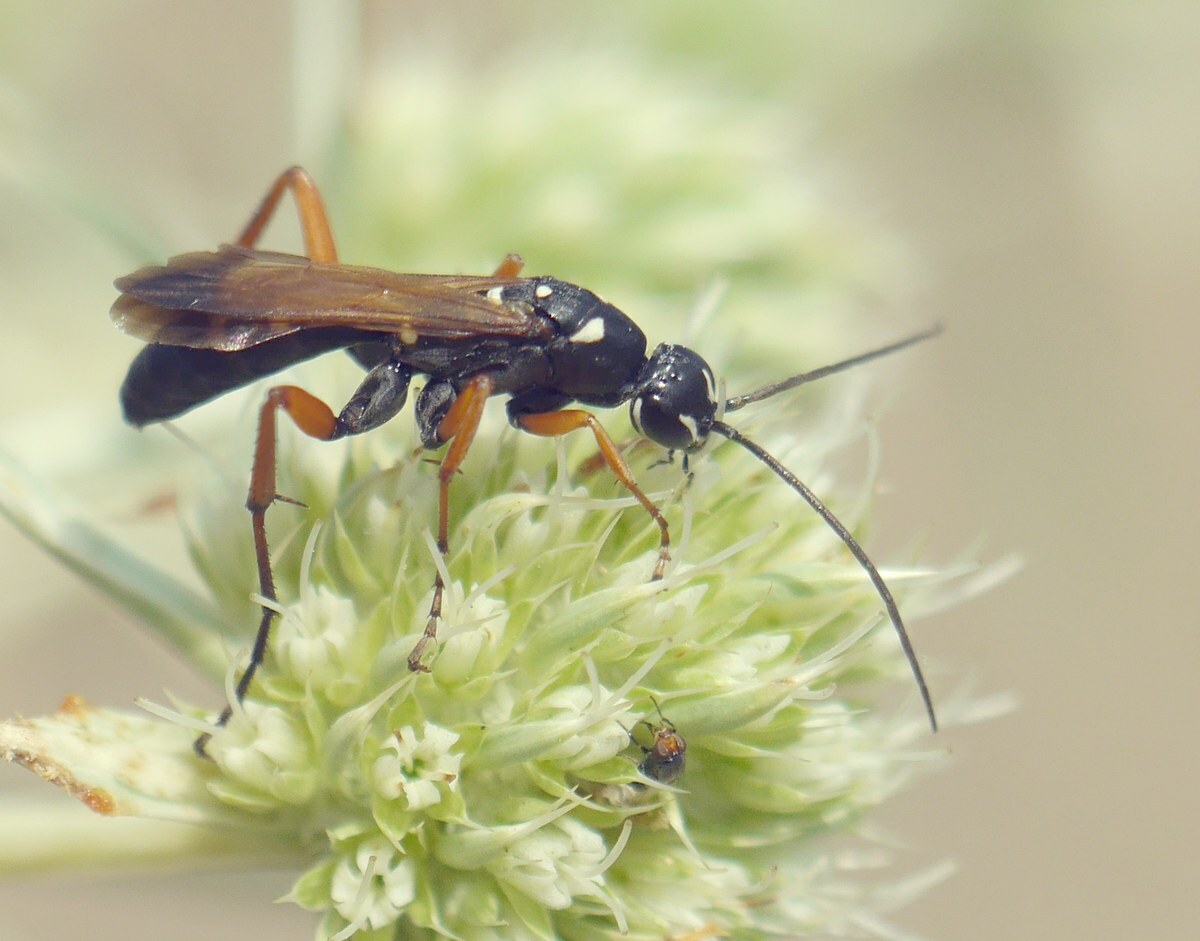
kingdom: Animalia
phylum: Arthropoda
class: Insecta
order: Hymenoptera
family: Pompilidae
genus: Cryptocheilus
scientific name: Cryptocheilus variabilis
